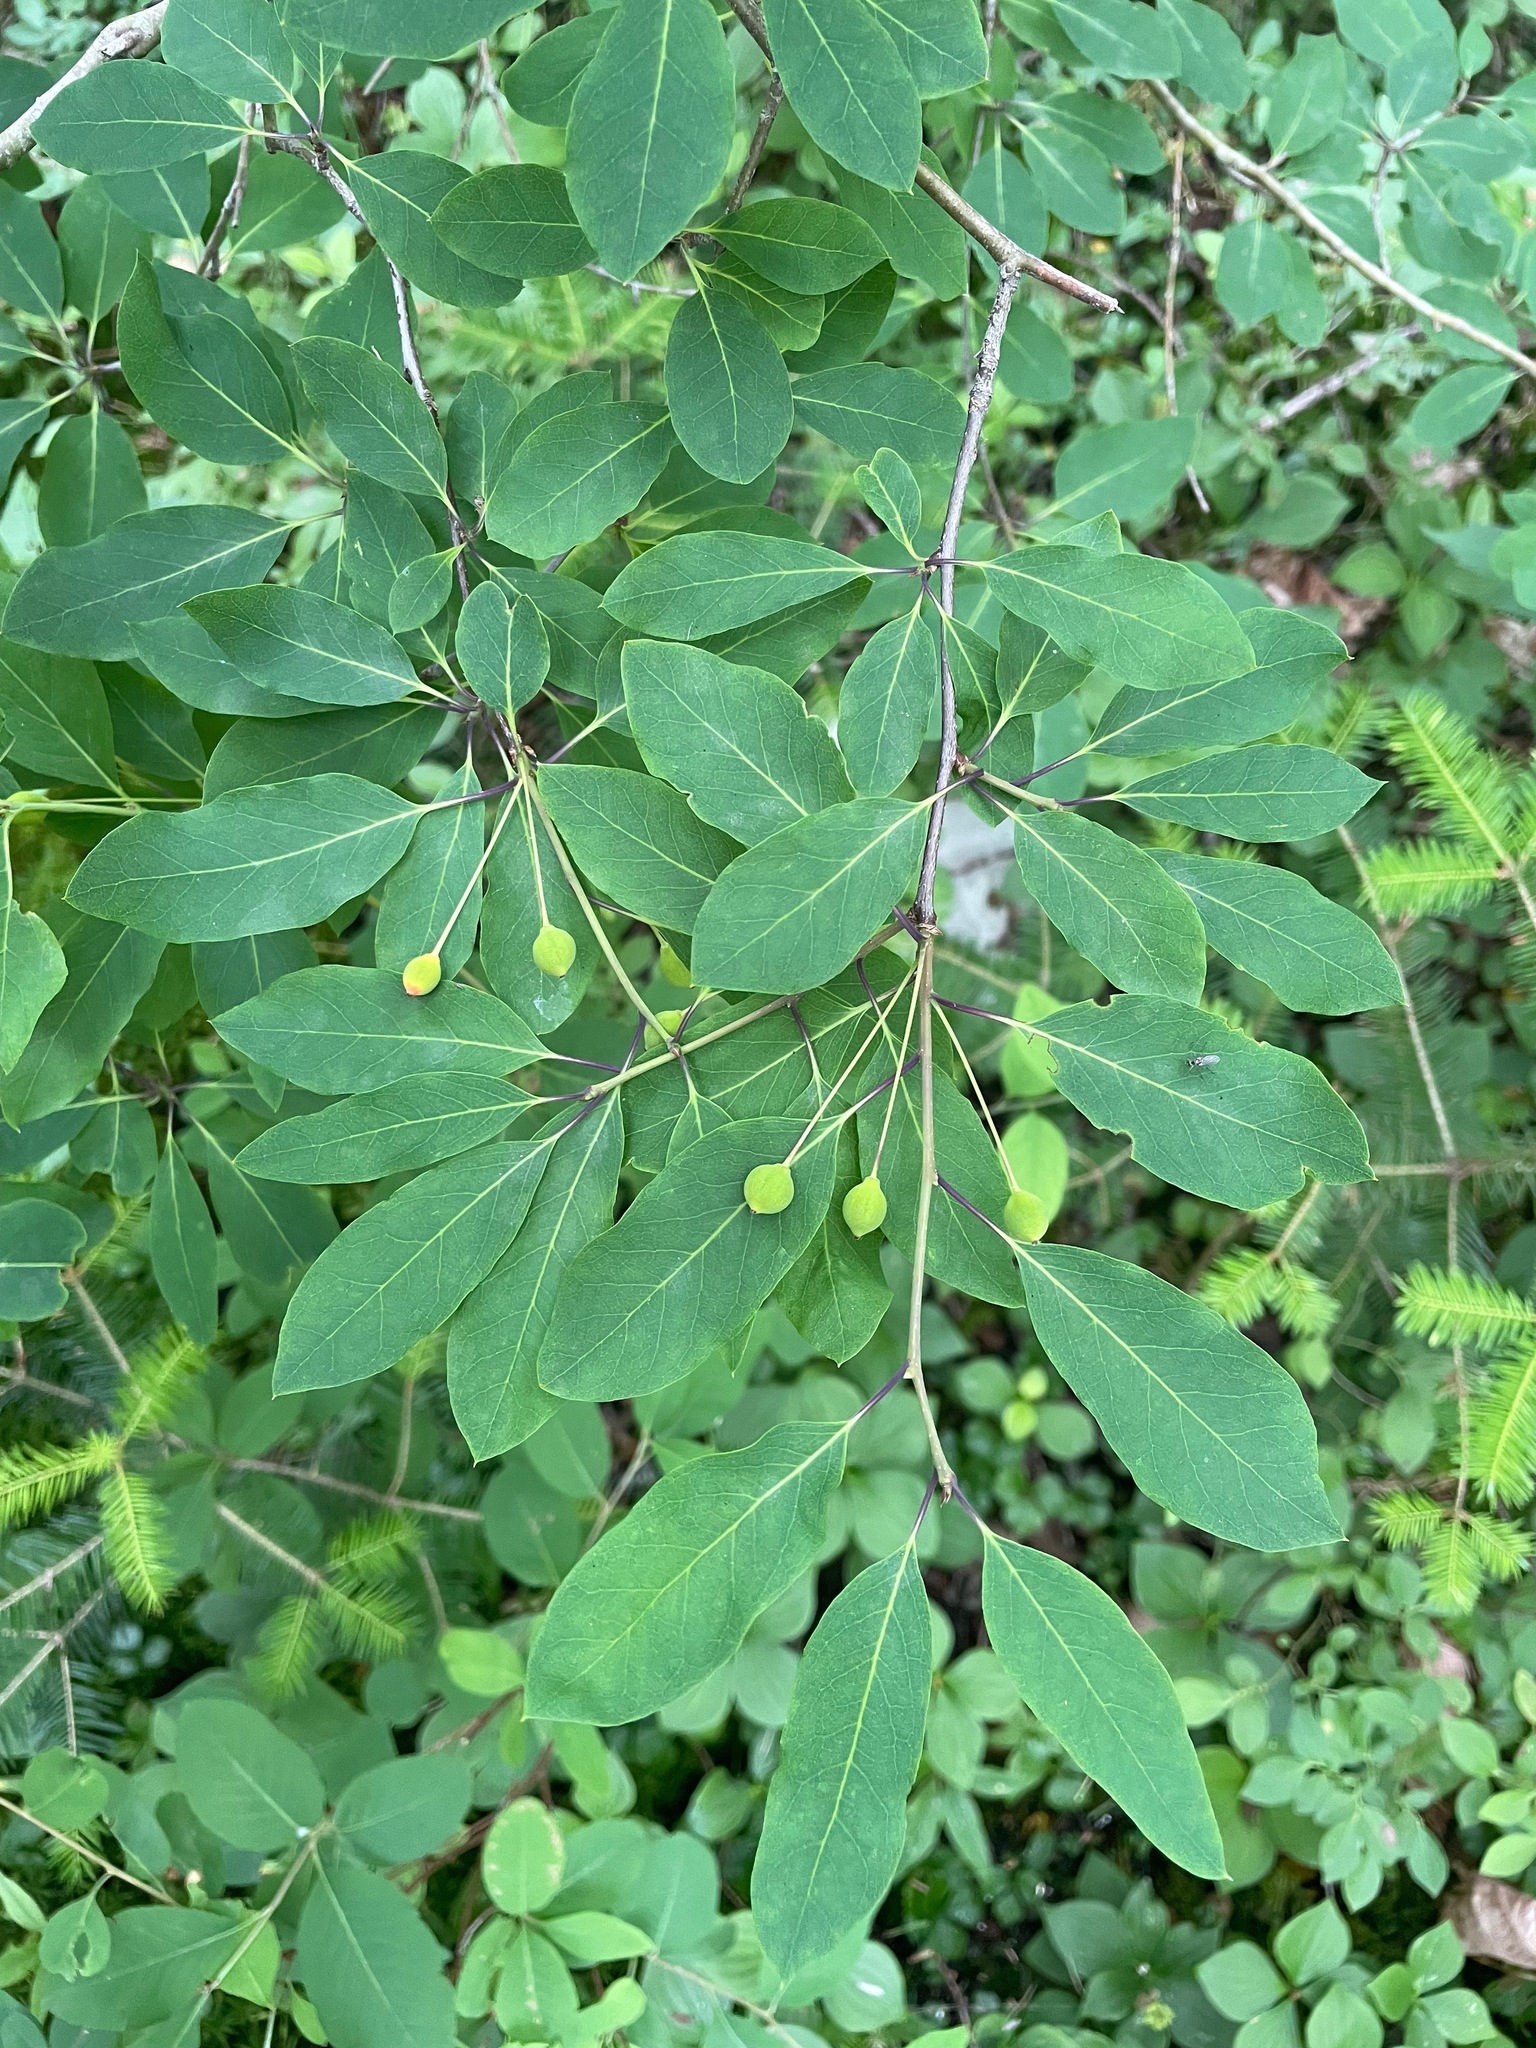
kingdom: Plantae
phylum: Tracheophyta
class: Magnoliopsida
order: Aquifoliales
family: Aquifoliaceae
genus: Ilex
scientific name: Ilex mucronata
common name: Catberry
